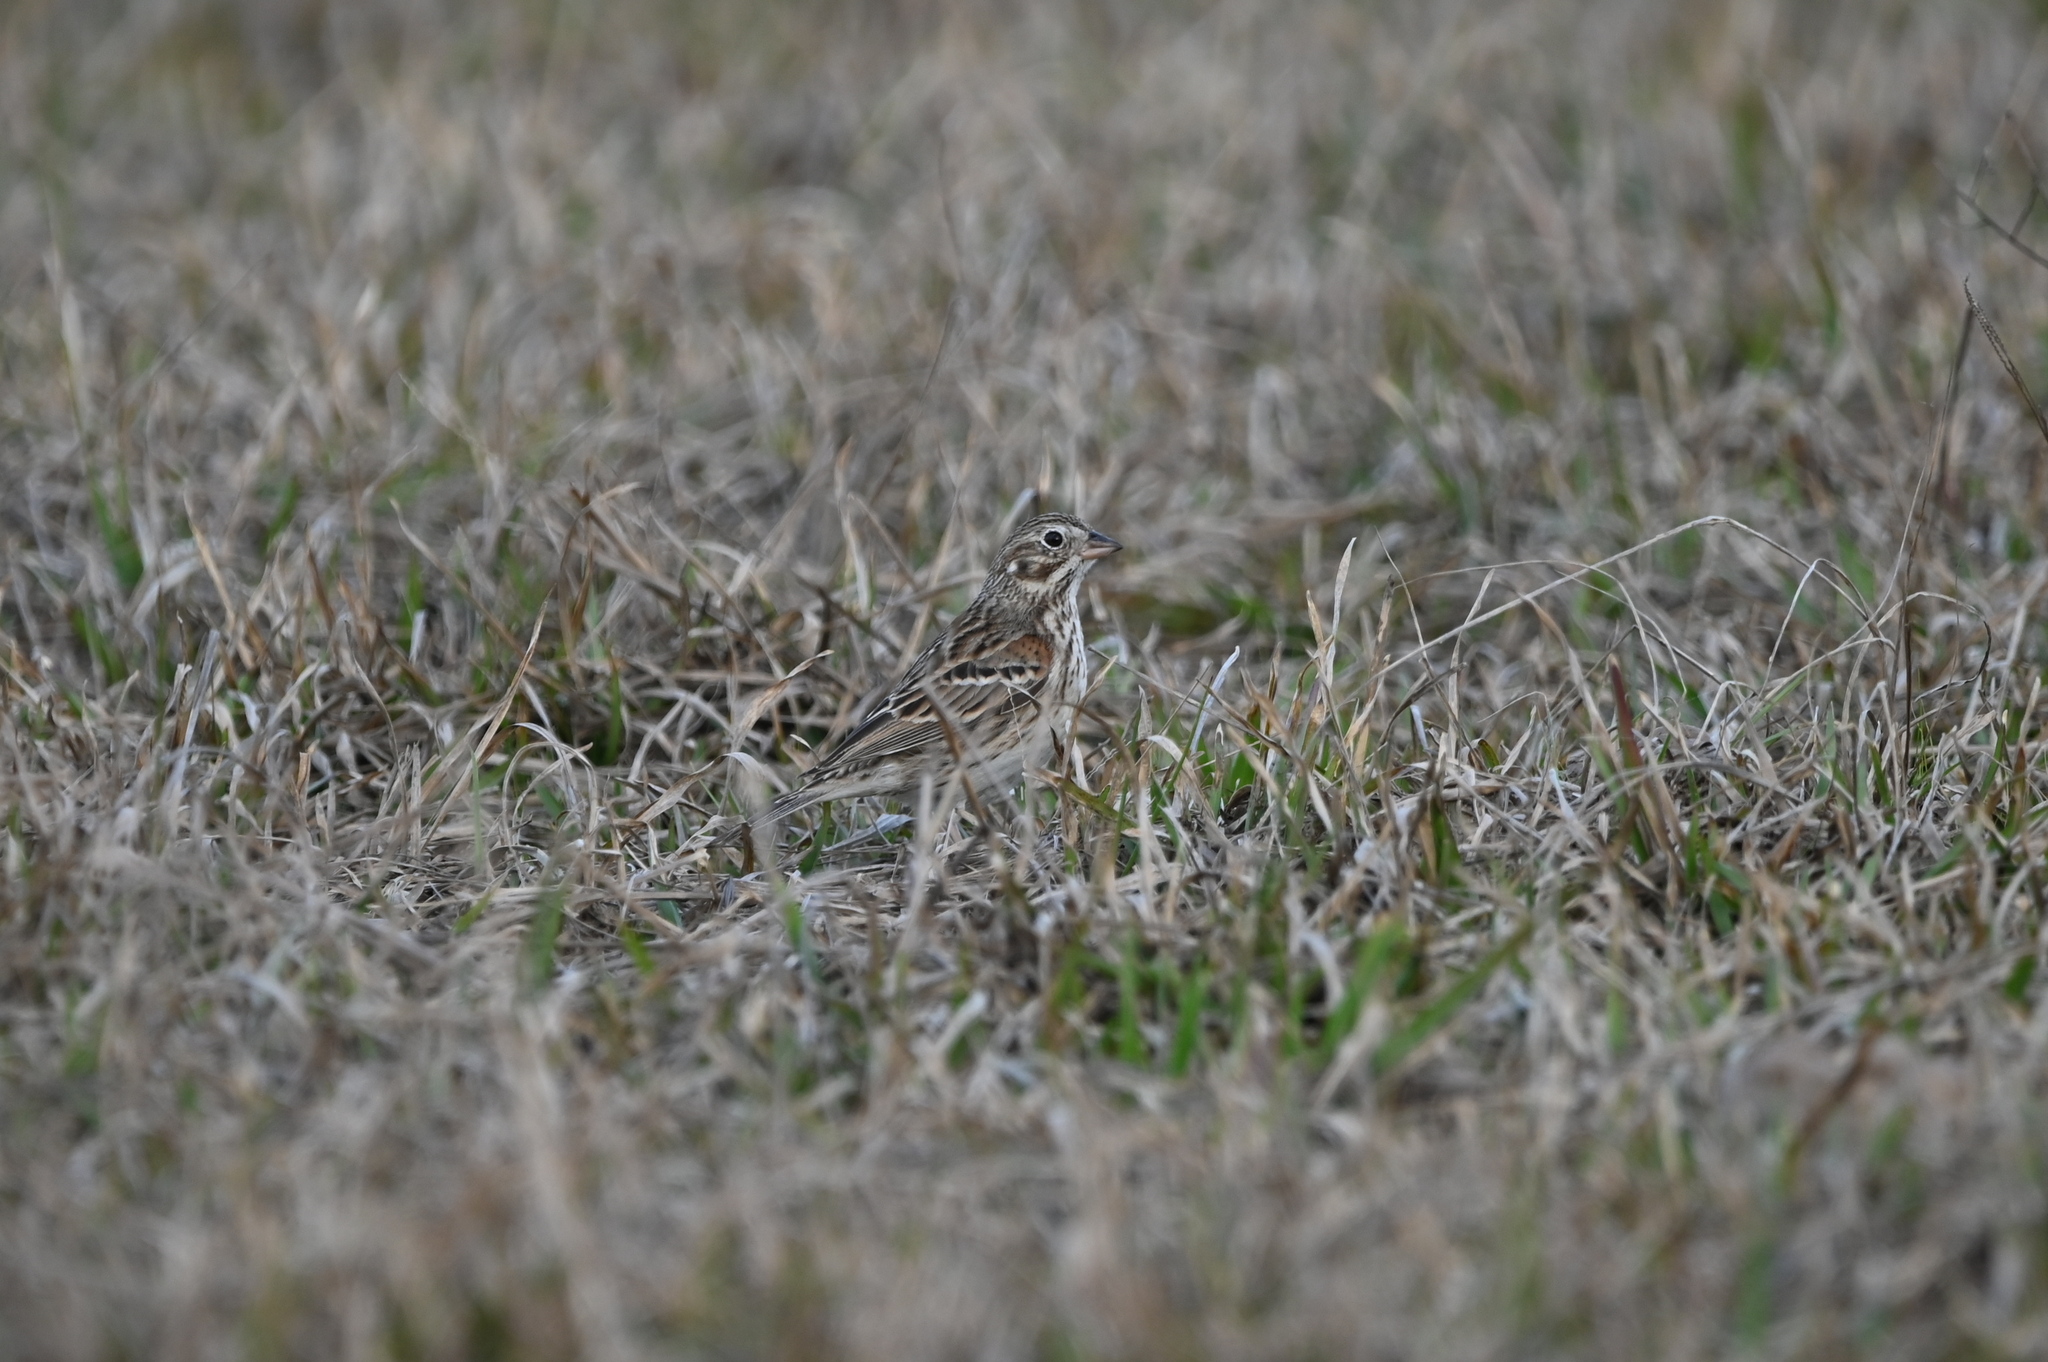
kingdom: Animalia
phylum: Chordata
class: Aves
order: Passeriformes
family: Passerellidae
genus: Pooecetes
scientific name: Pooecetes gramineus
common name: Vesper sparrow
